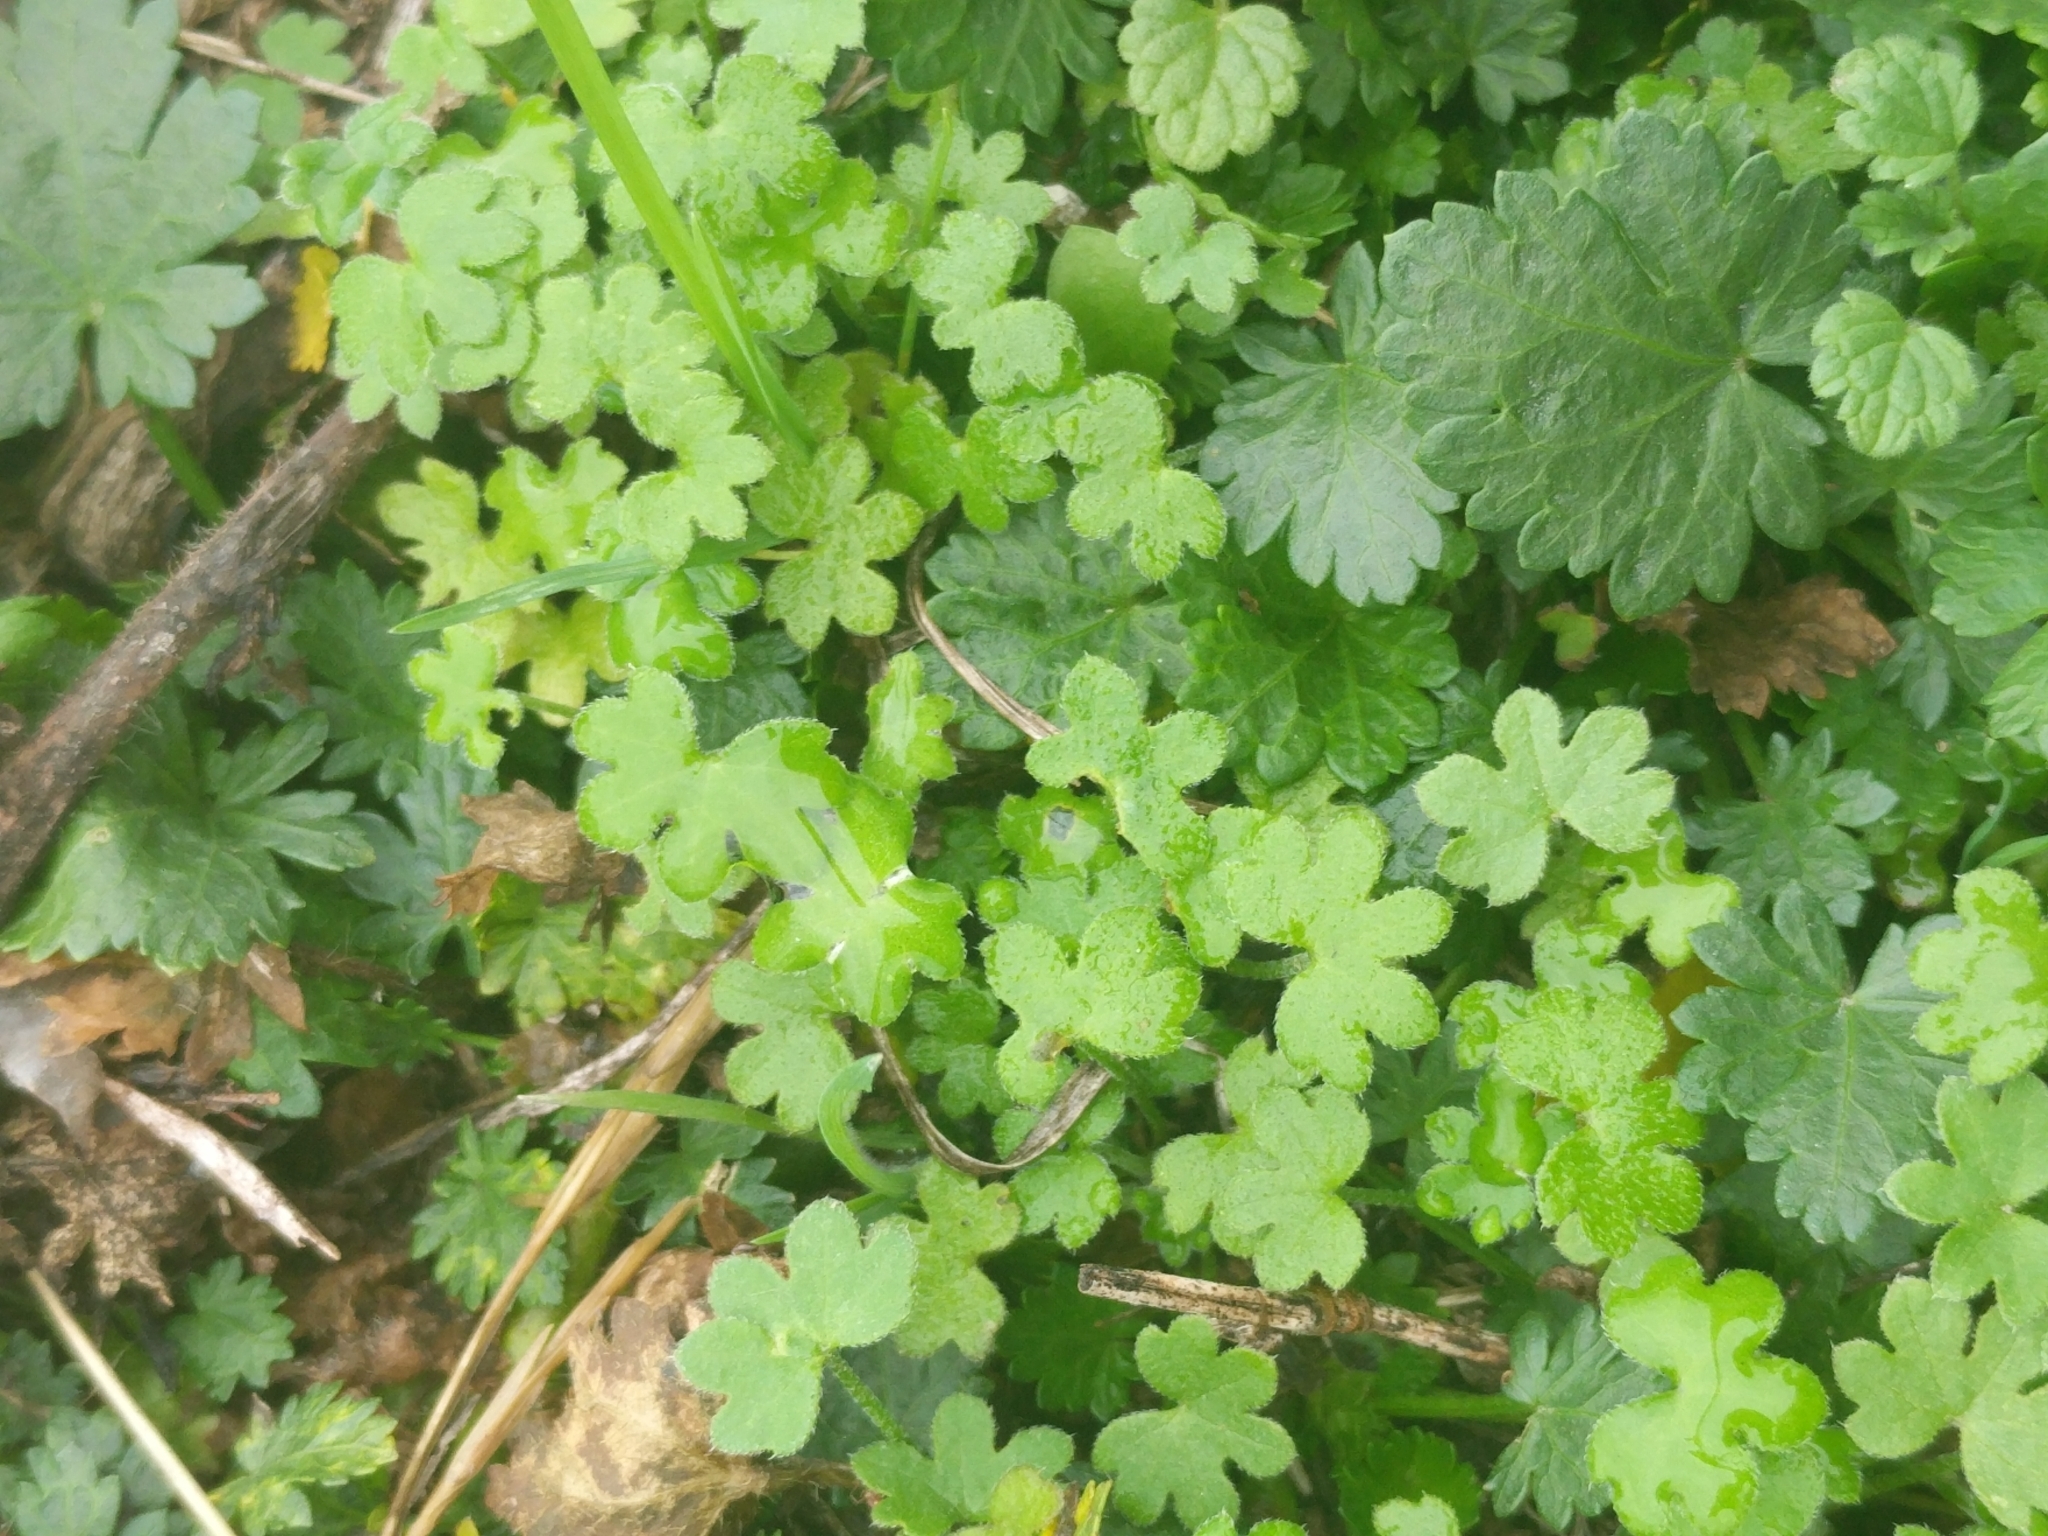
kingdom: Plantae
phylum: Tracheophyta
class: Magnoliopsida
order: Apiales
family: Apiaceae
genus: Bowlesia
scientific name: Bowlesia incana
